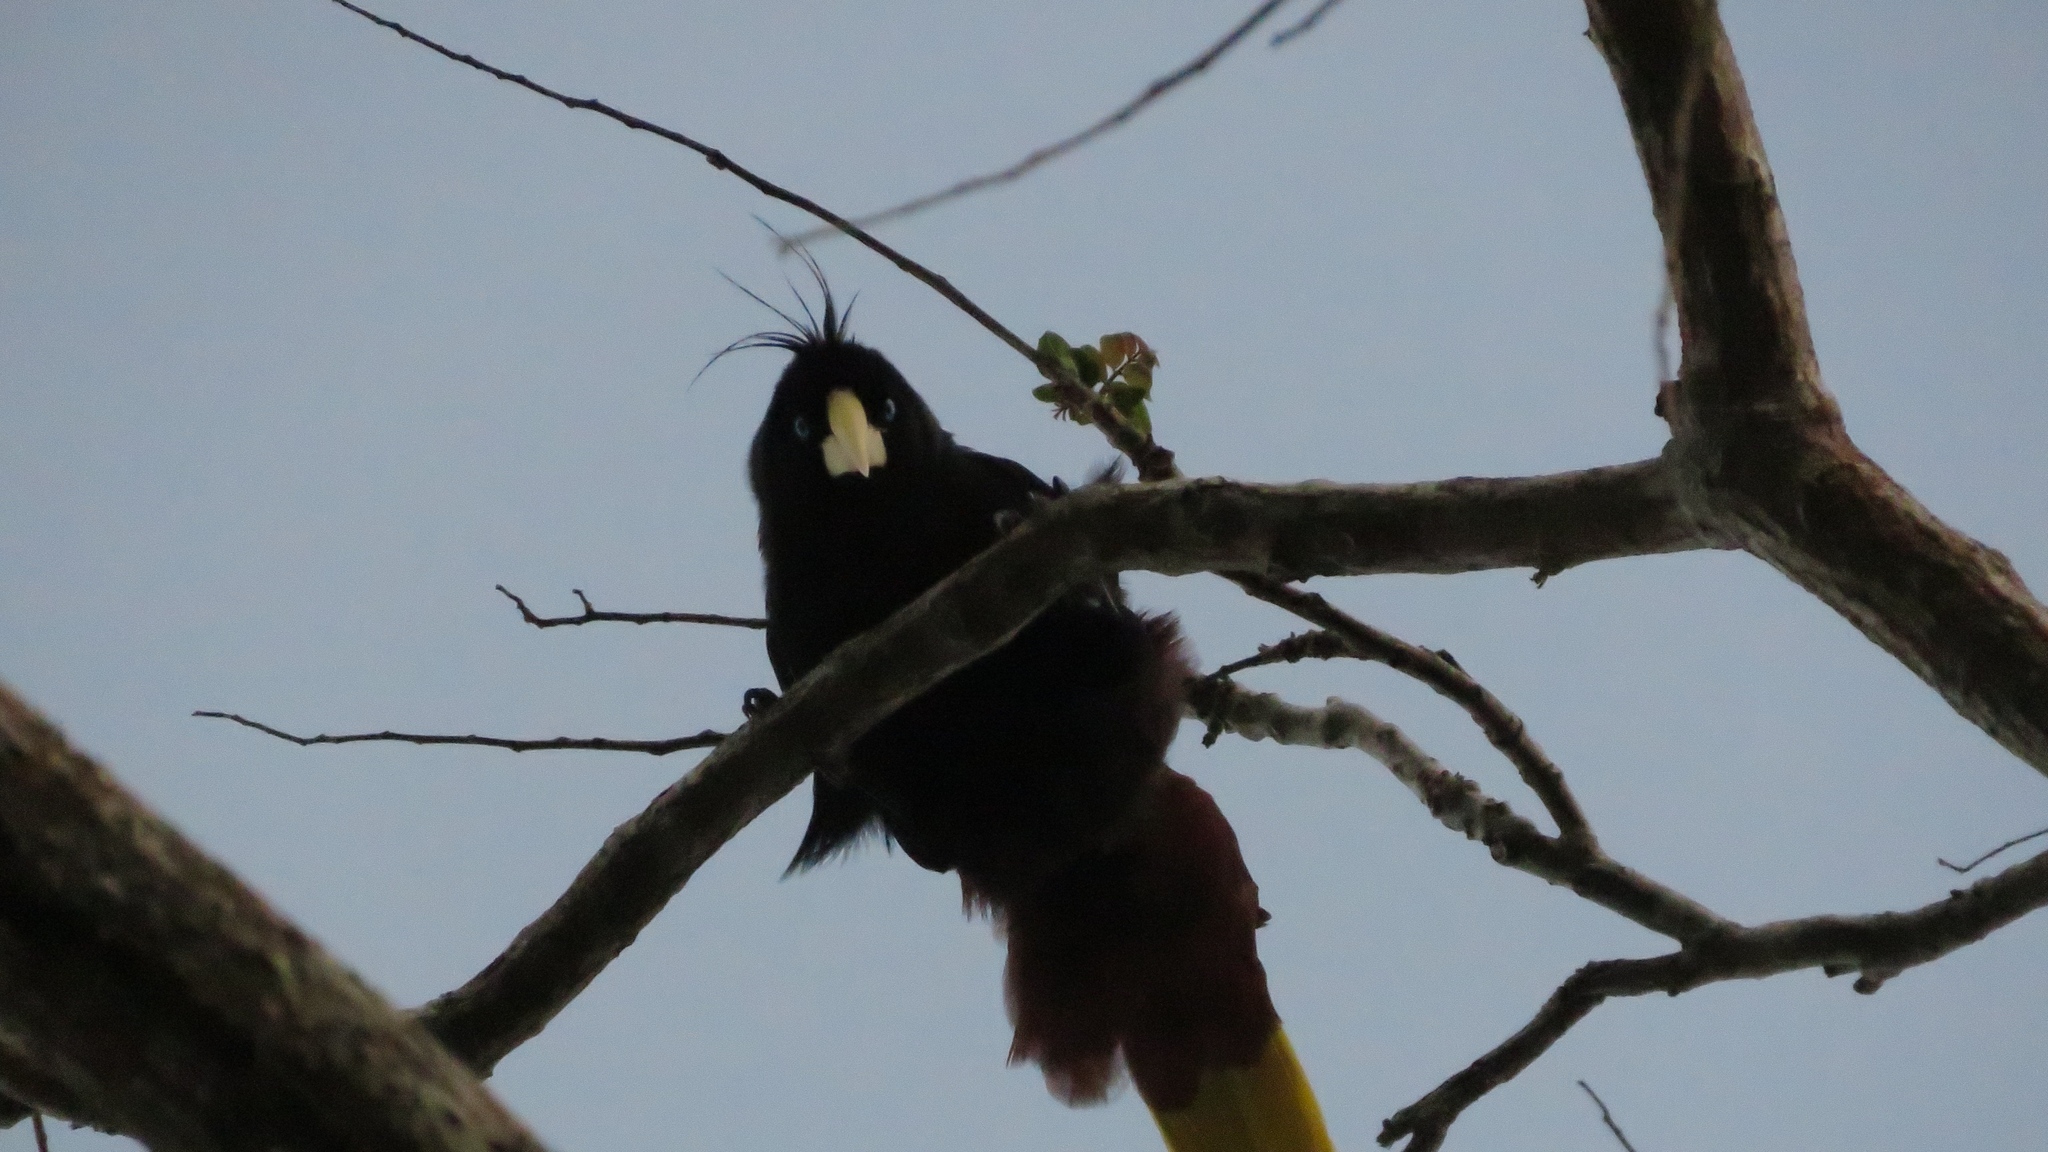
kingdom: Animalia
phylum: Chordata
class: Aves
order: Passeriformes
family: Icteridae
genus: Psarocolius
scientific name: Psarocolius decumanus
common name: Crested oropendola
